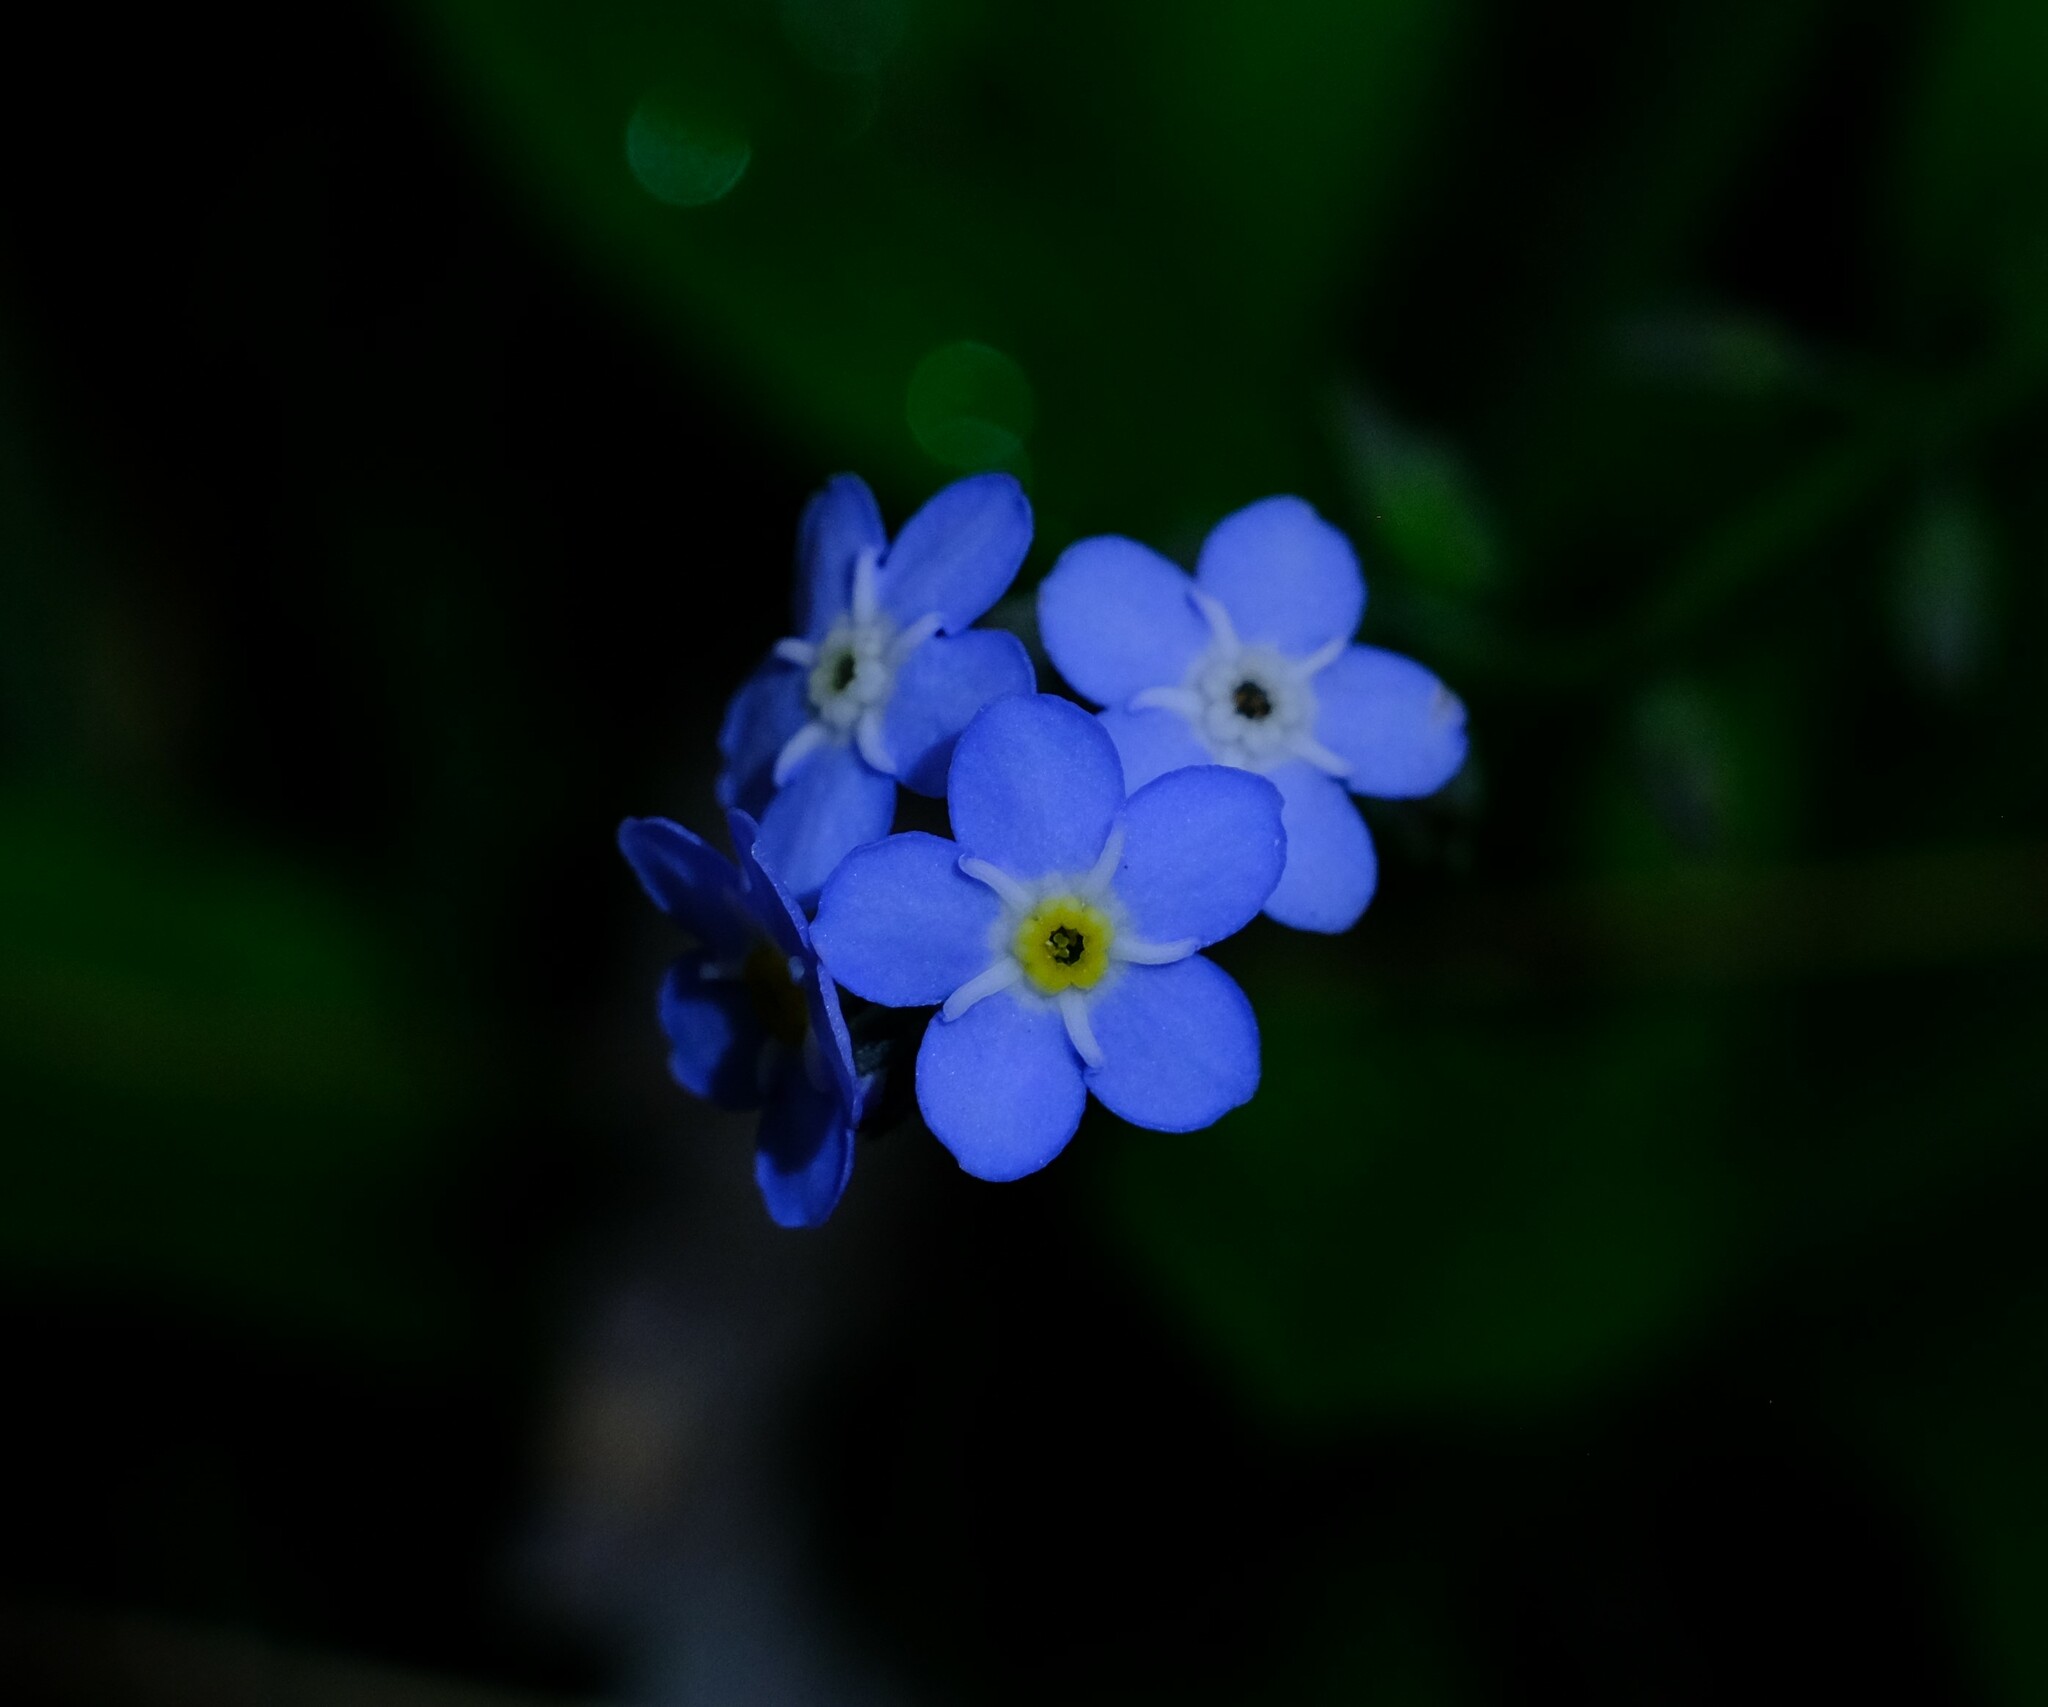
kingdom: Plantae
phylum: Tracheophyta
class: Magnoliopsida
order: Boraginales
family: Boraginaceae
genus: Myosotis
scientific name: Myosotis sylvatica
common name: Wood forget-me-not
